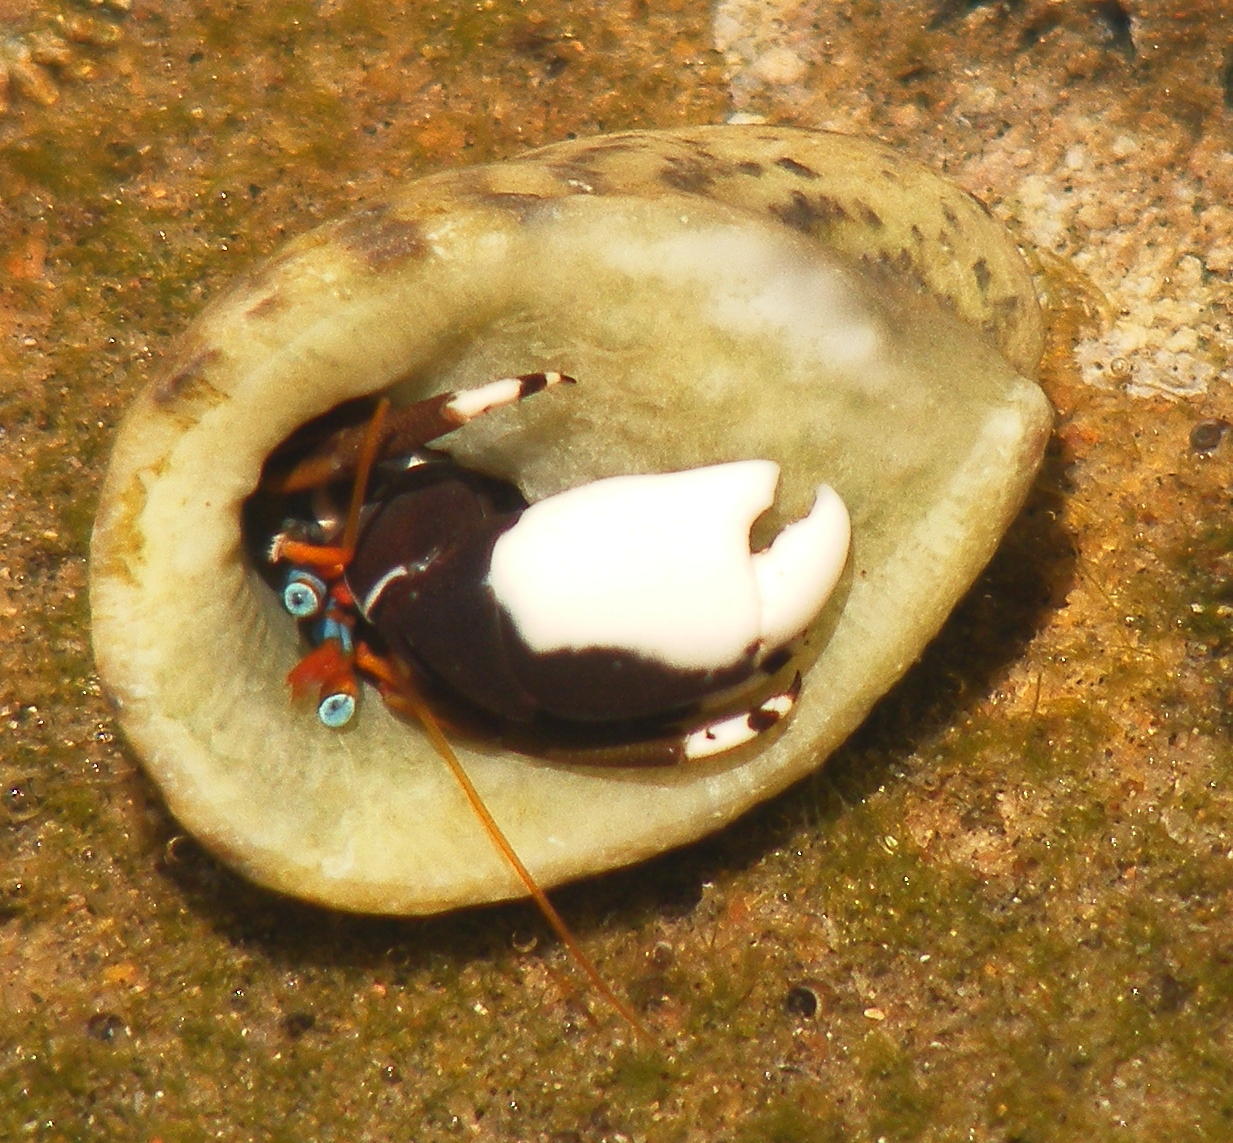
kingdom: Animalia
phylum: Mollusca
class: Gastropoda
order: Cycloneritida
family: Neritidae
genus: Nerita
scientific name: Nerita albicilla
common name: Blotched nerite
